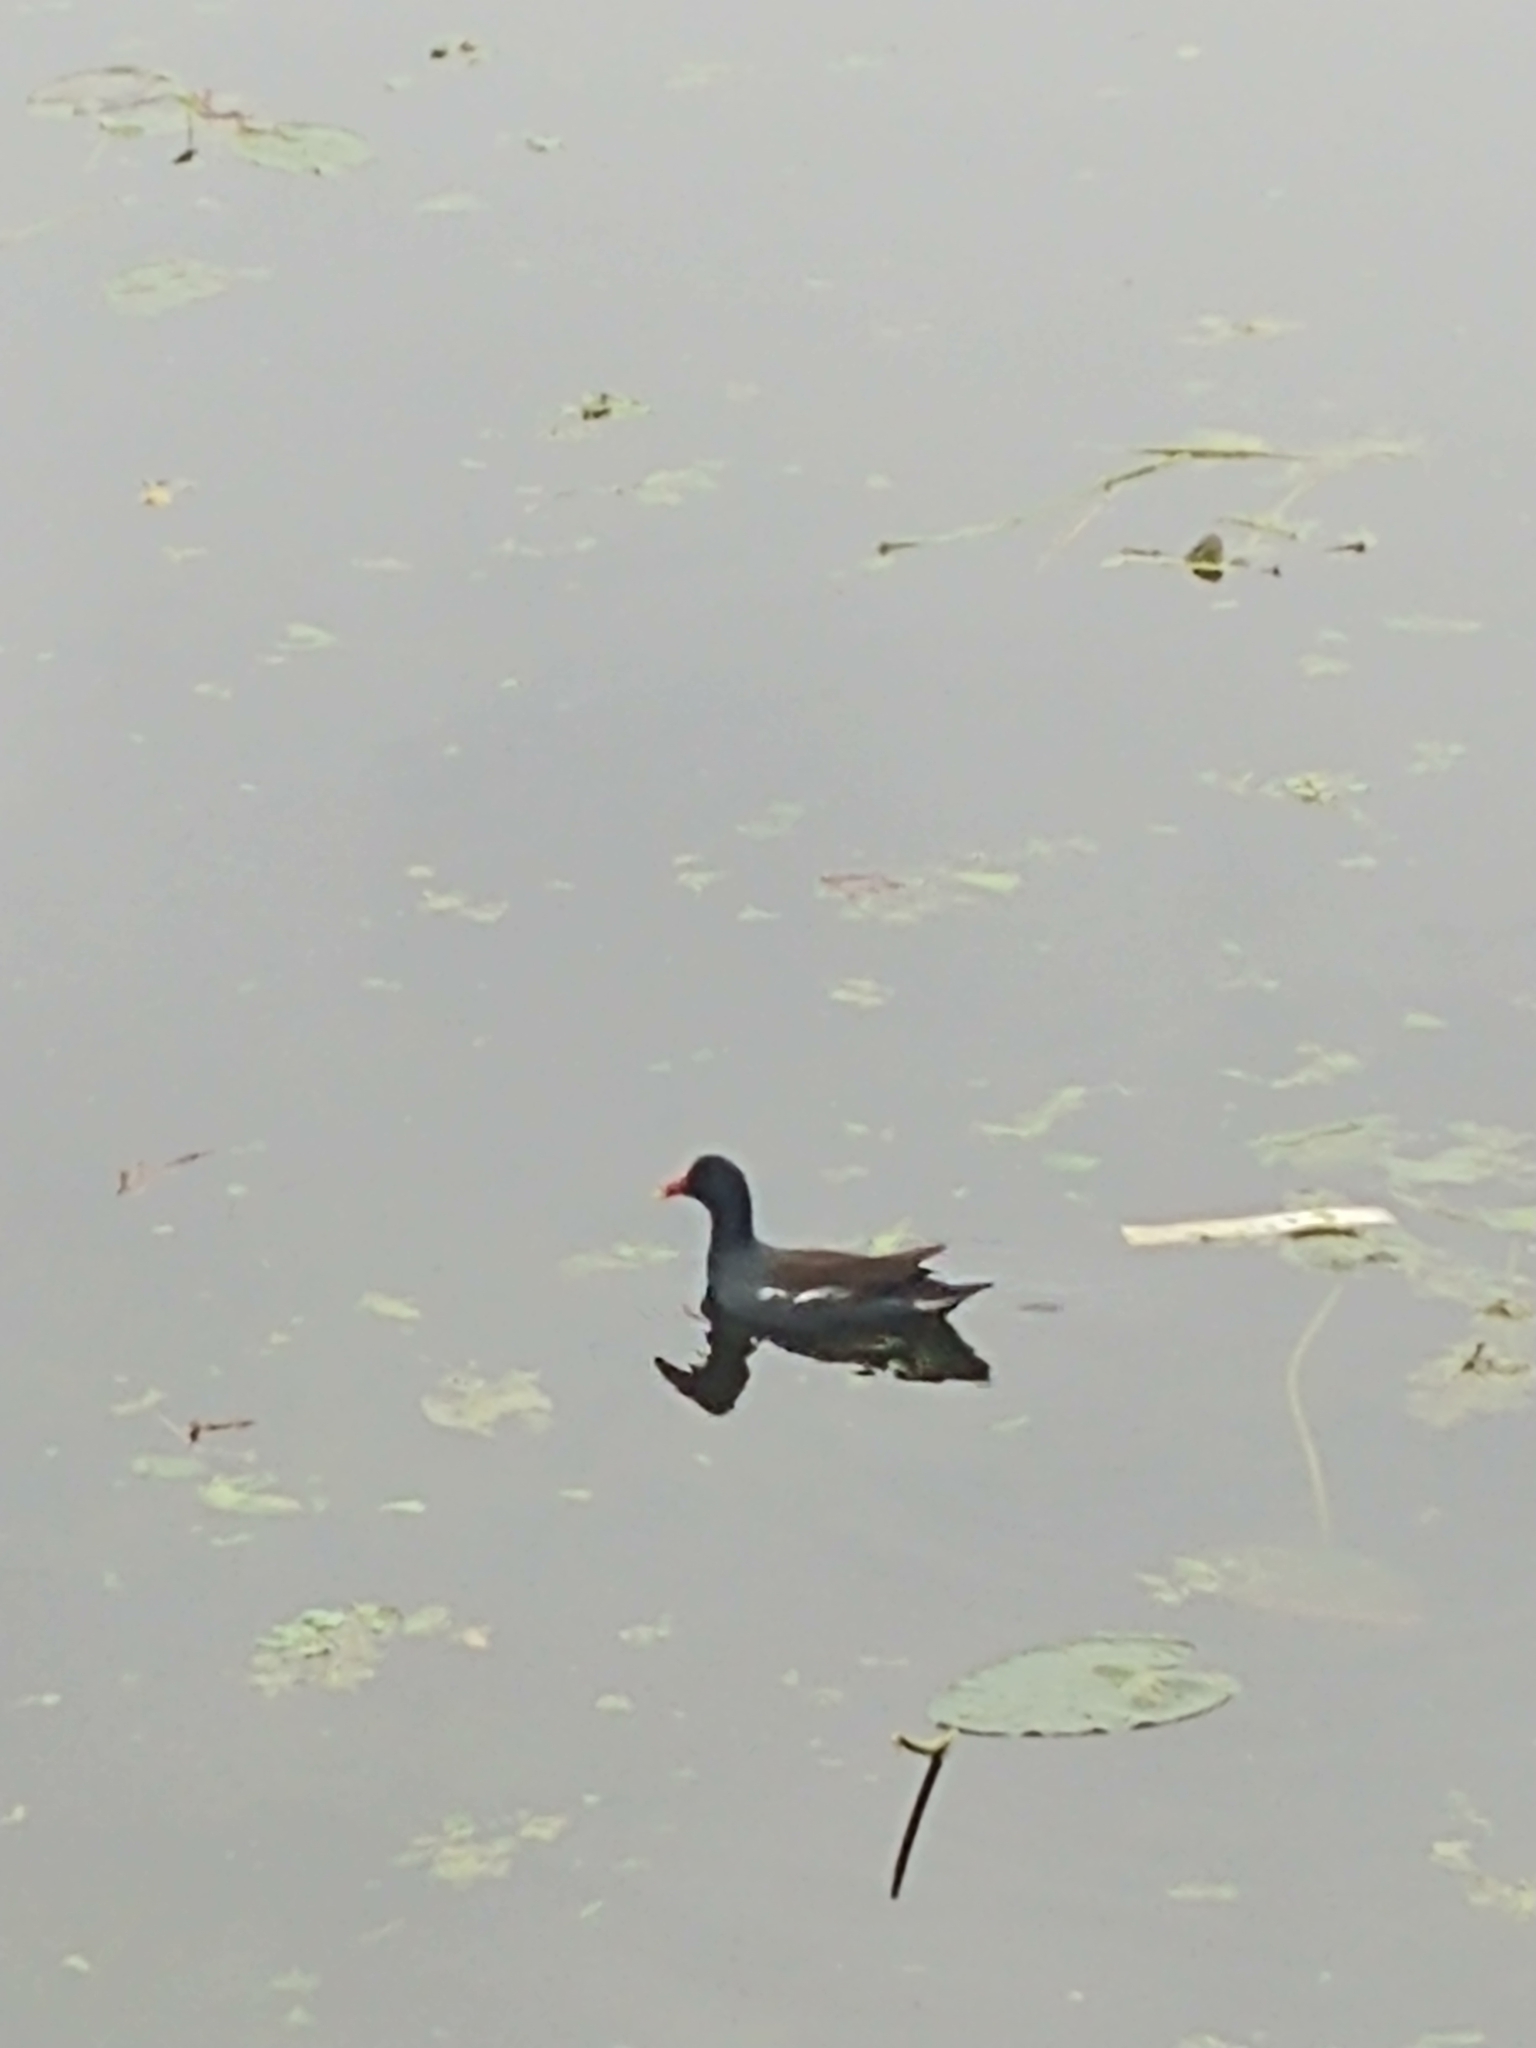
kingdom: Animalia
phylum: Chordata
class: Aves
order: Gruiformes
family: Rallidae
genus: Gallinula
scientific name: Gallinula chloropus
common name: Common moorhen
